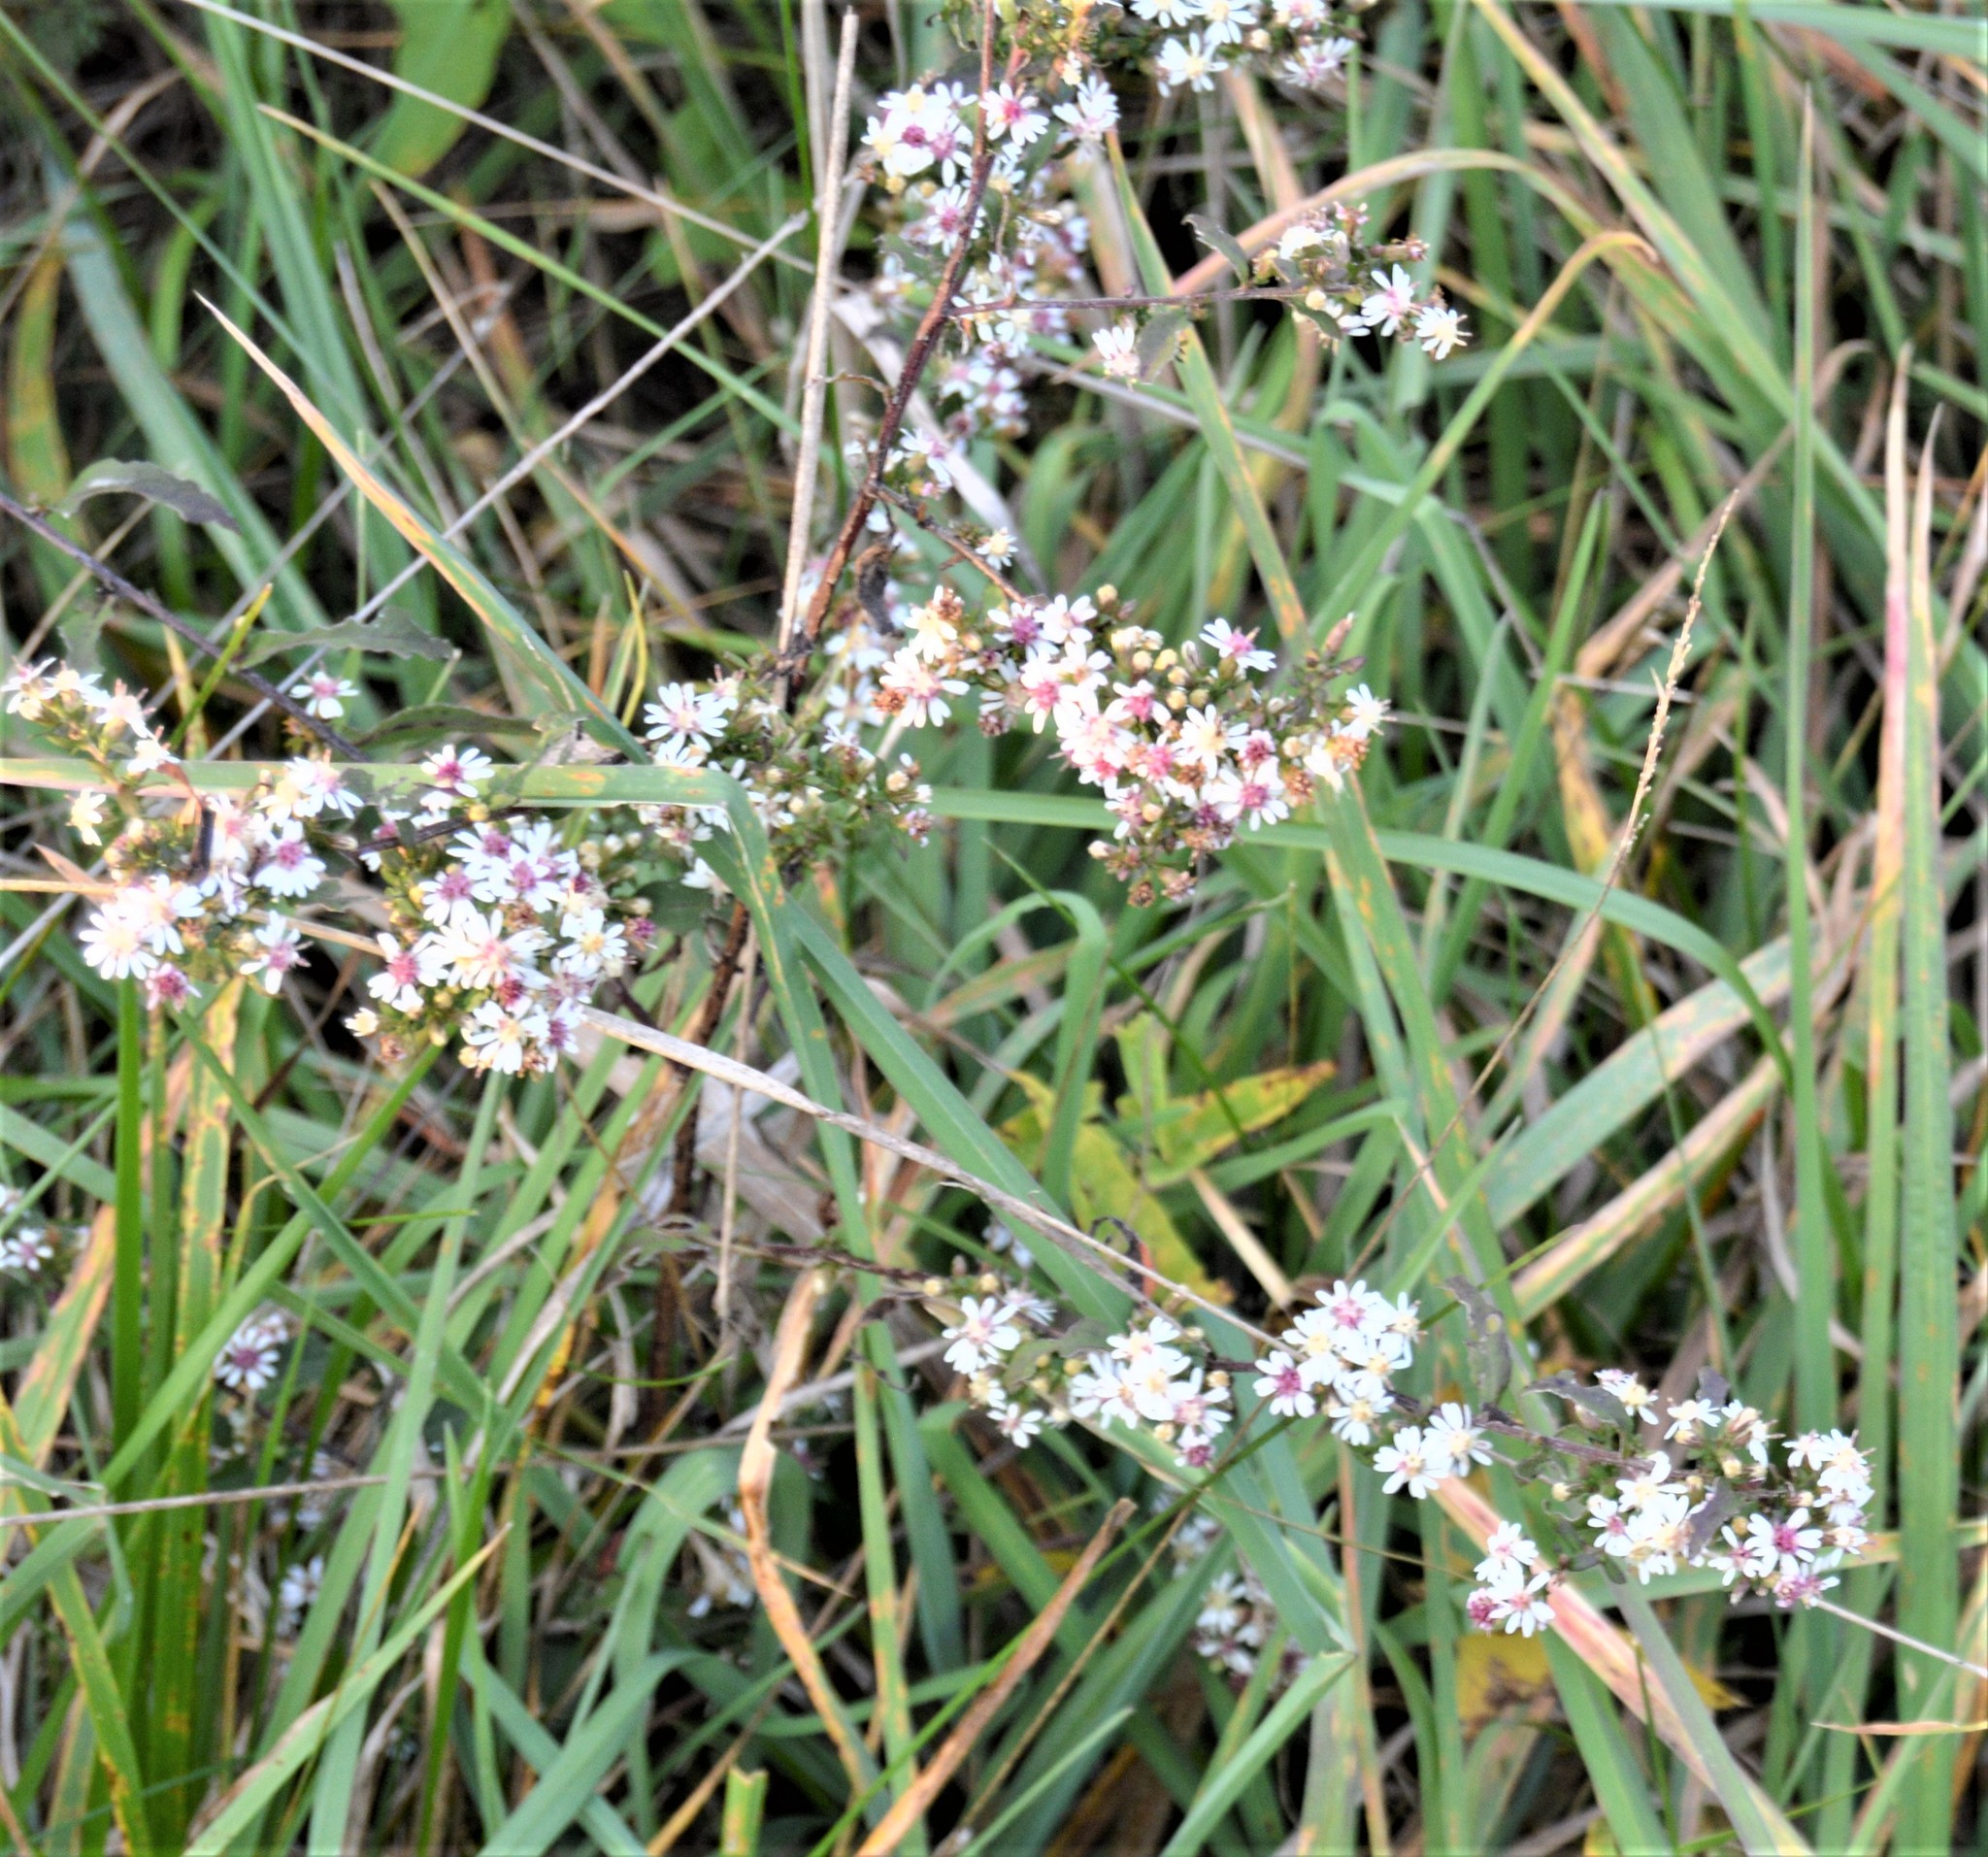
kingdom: Plantae
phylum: Tracheophyta
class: Magnoliopsida
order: Asterales
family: Asteraceae
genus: Symphyotrichum
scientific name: Symphyotrichum lateriflorum
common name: Calico aster
